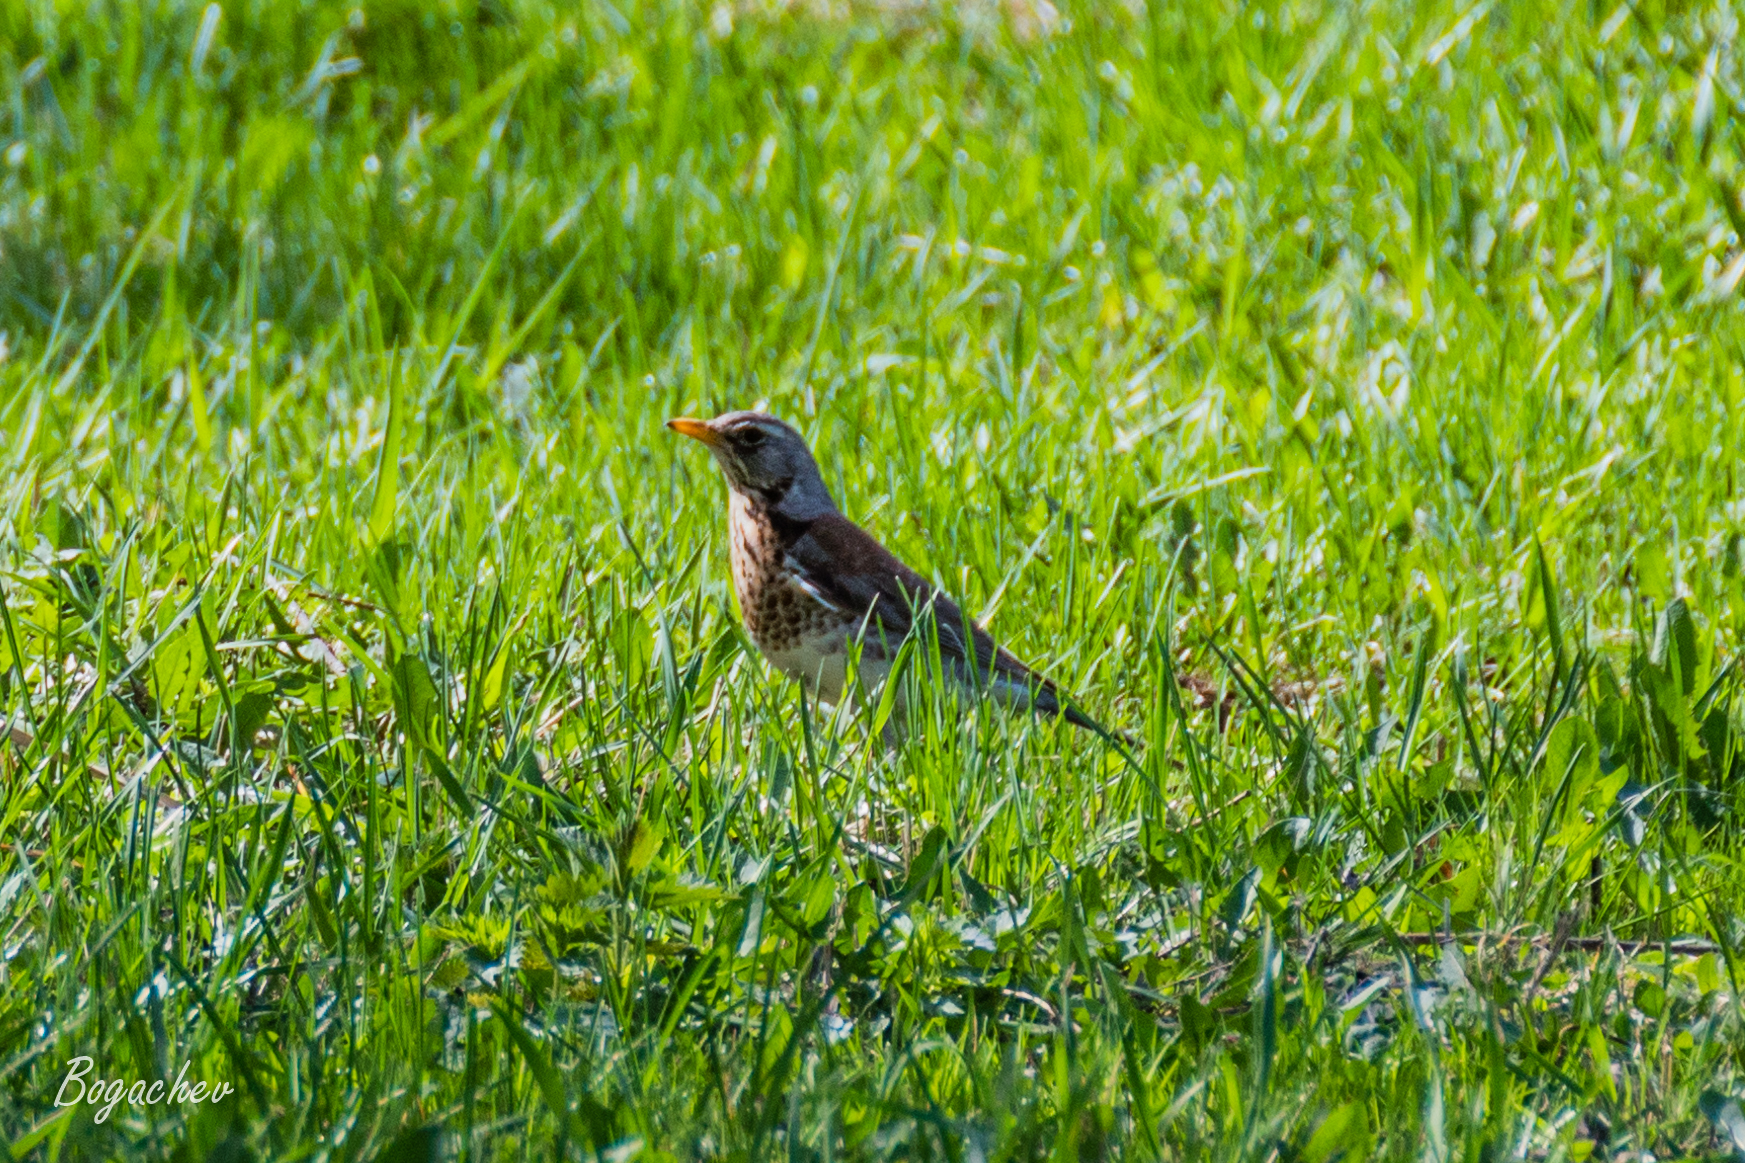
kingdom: Animalia
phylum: Chordata
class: Aves
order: Passeriformes
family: Turdidae
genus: Turdus
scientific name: Turdus pilaris
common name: Fieldfare
